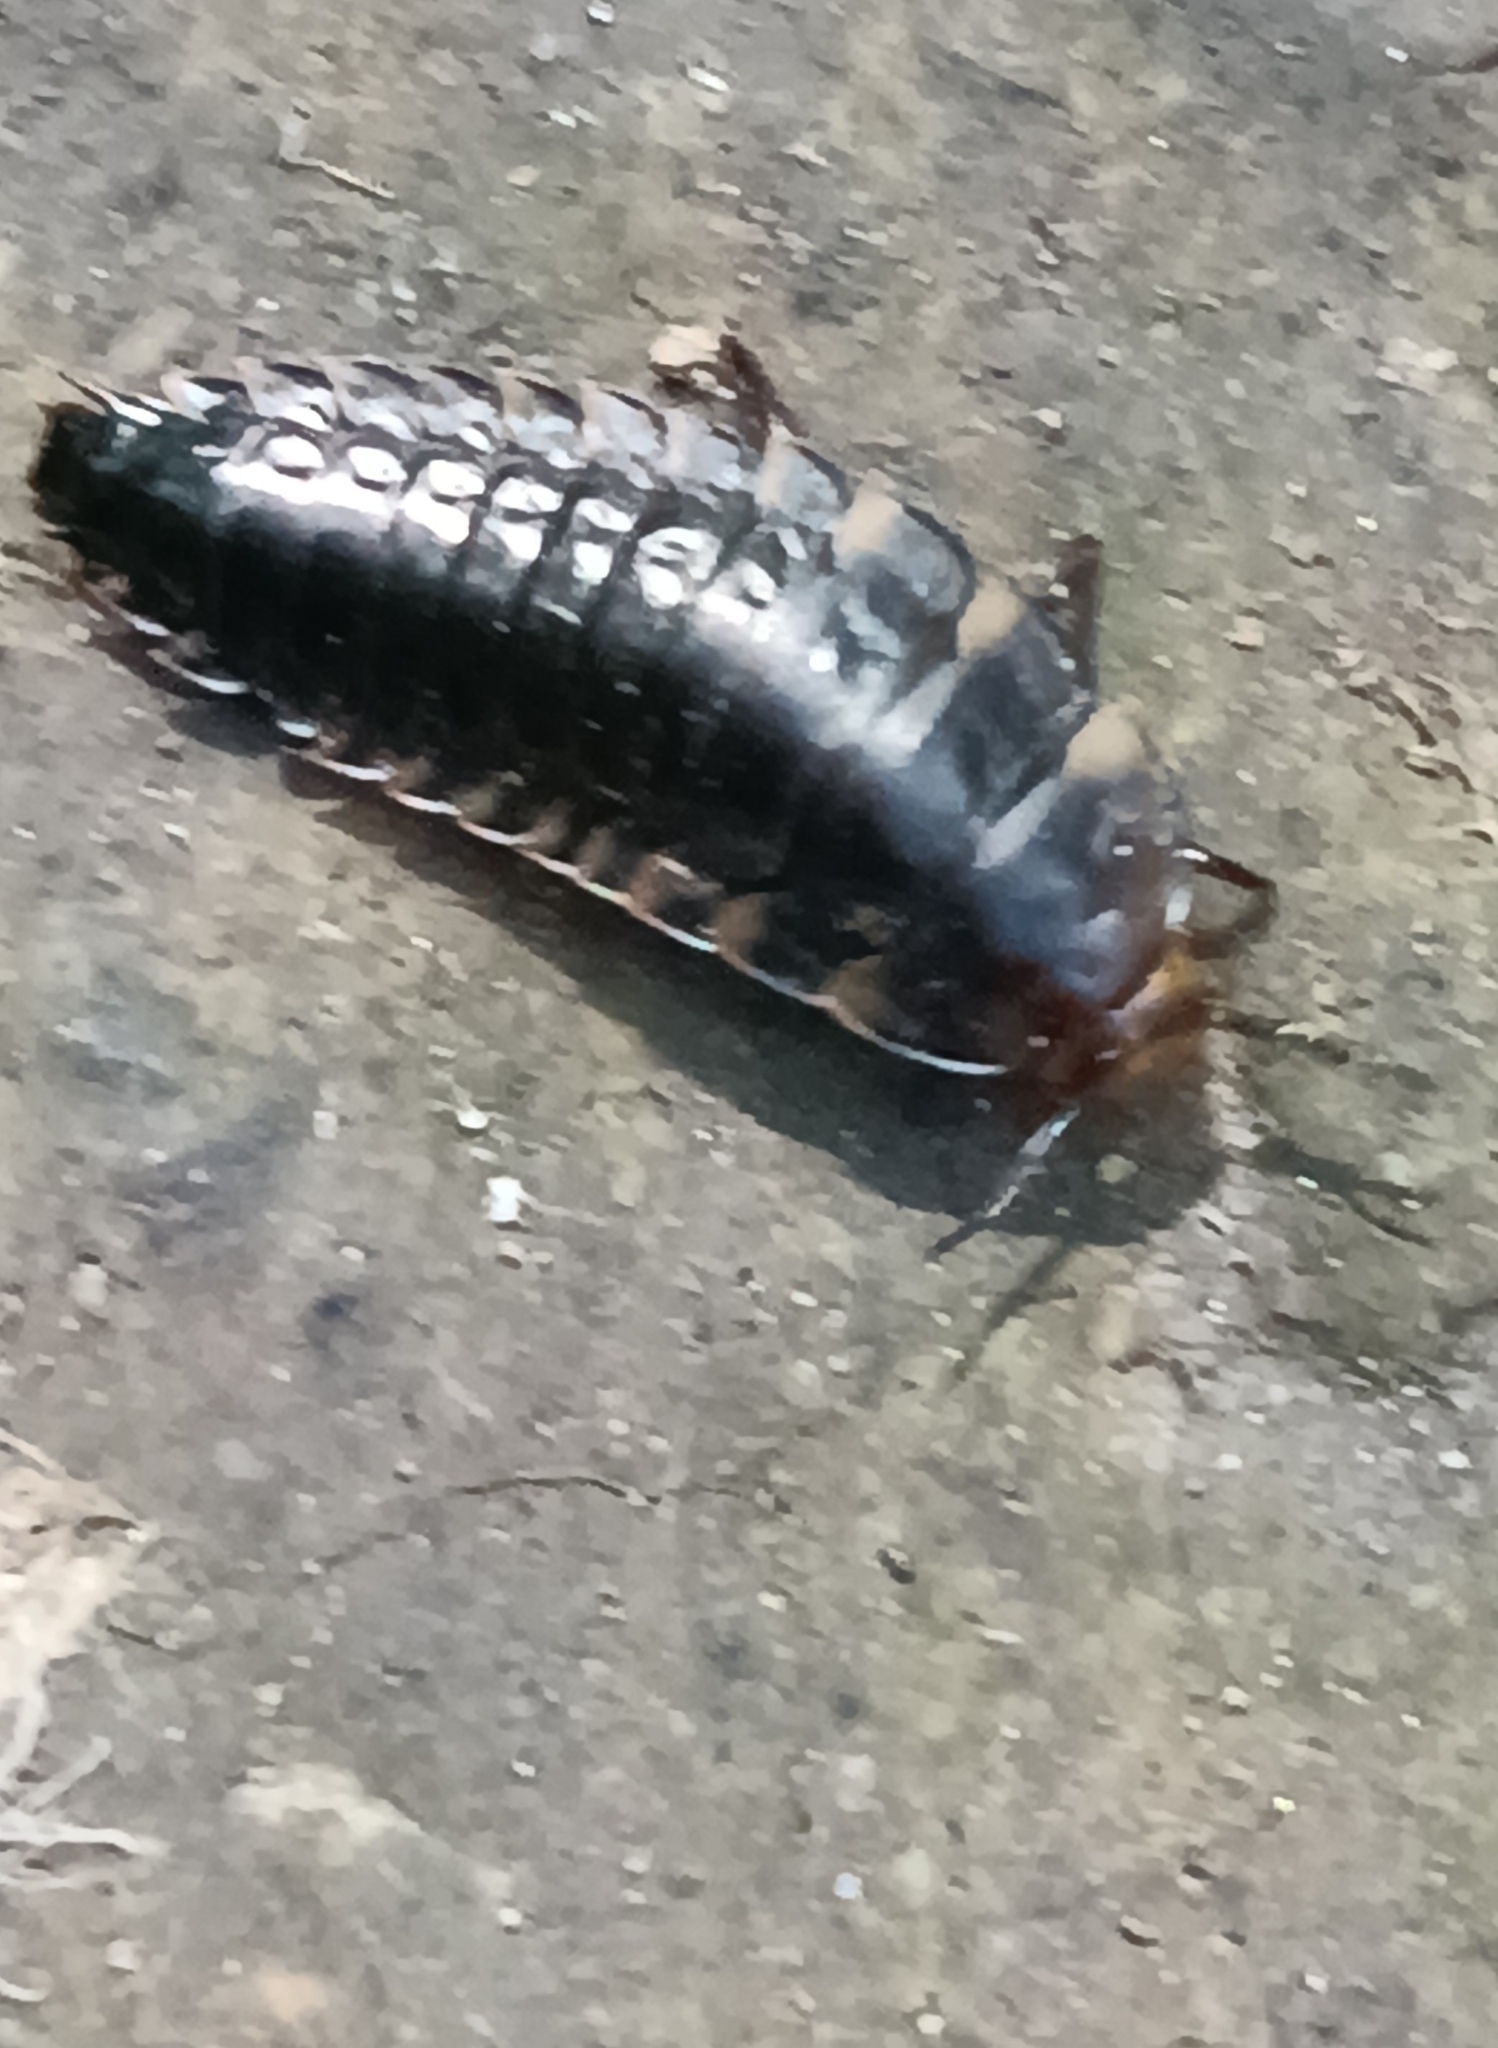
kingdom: Animalia
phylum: Arthropoda
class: Insecta
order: Coleoptera
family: Staphylinidae
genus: Silpha
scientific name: Silpha tristis
